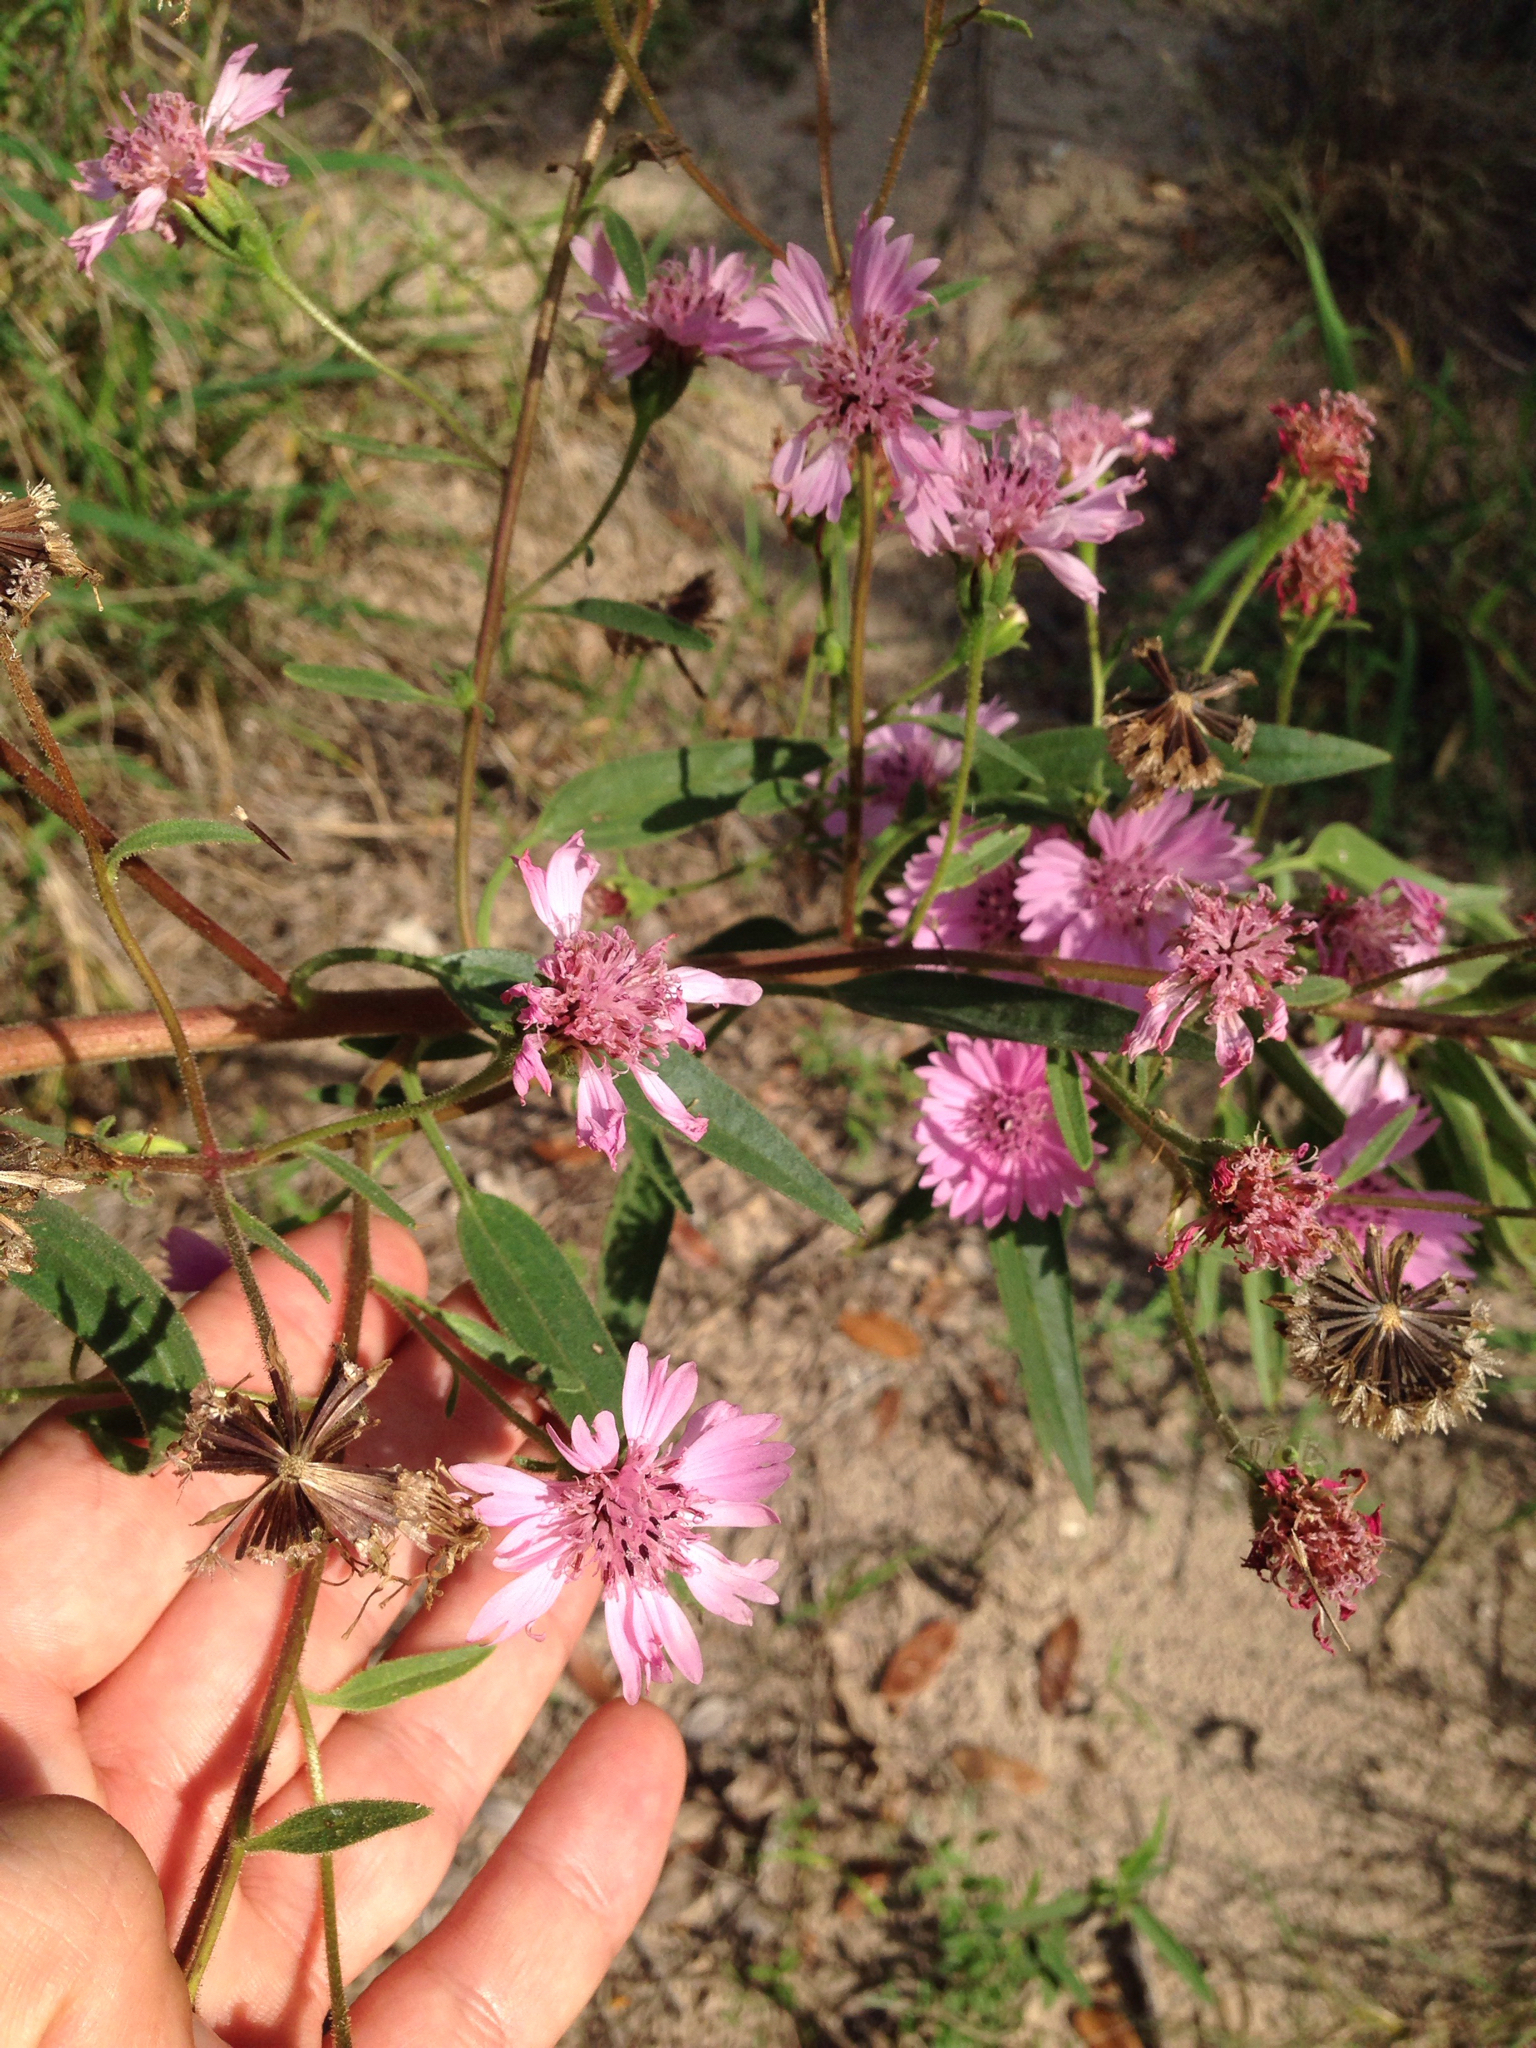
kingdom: Plantae
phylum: Tracheophyta
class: Magnoliopsida
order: Asterales
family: Asteraceae
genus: Palafoxia
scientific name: Palafoxia hookeriana
